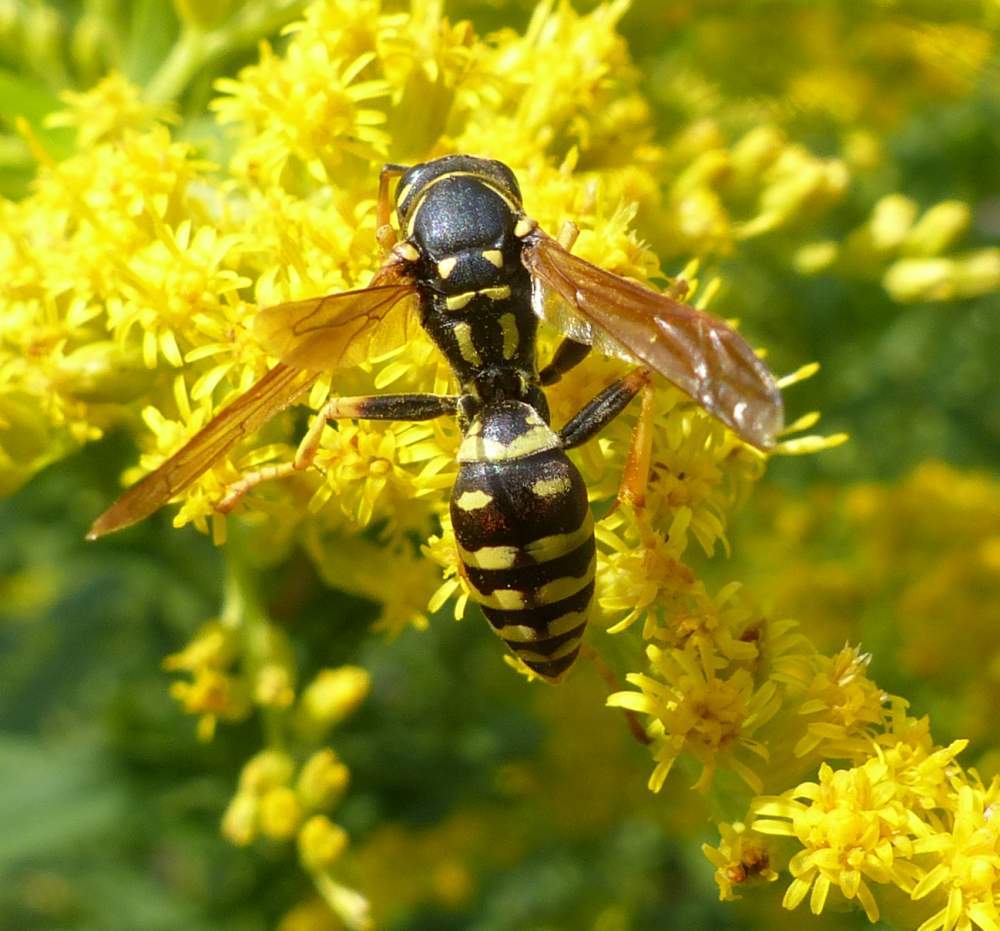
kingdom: Animalia
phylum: Arthropoda
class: Insecta
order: Hymenoptera
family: Eumenidae
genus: Polistes
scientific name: Polistes dominula
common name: Paper wasp
